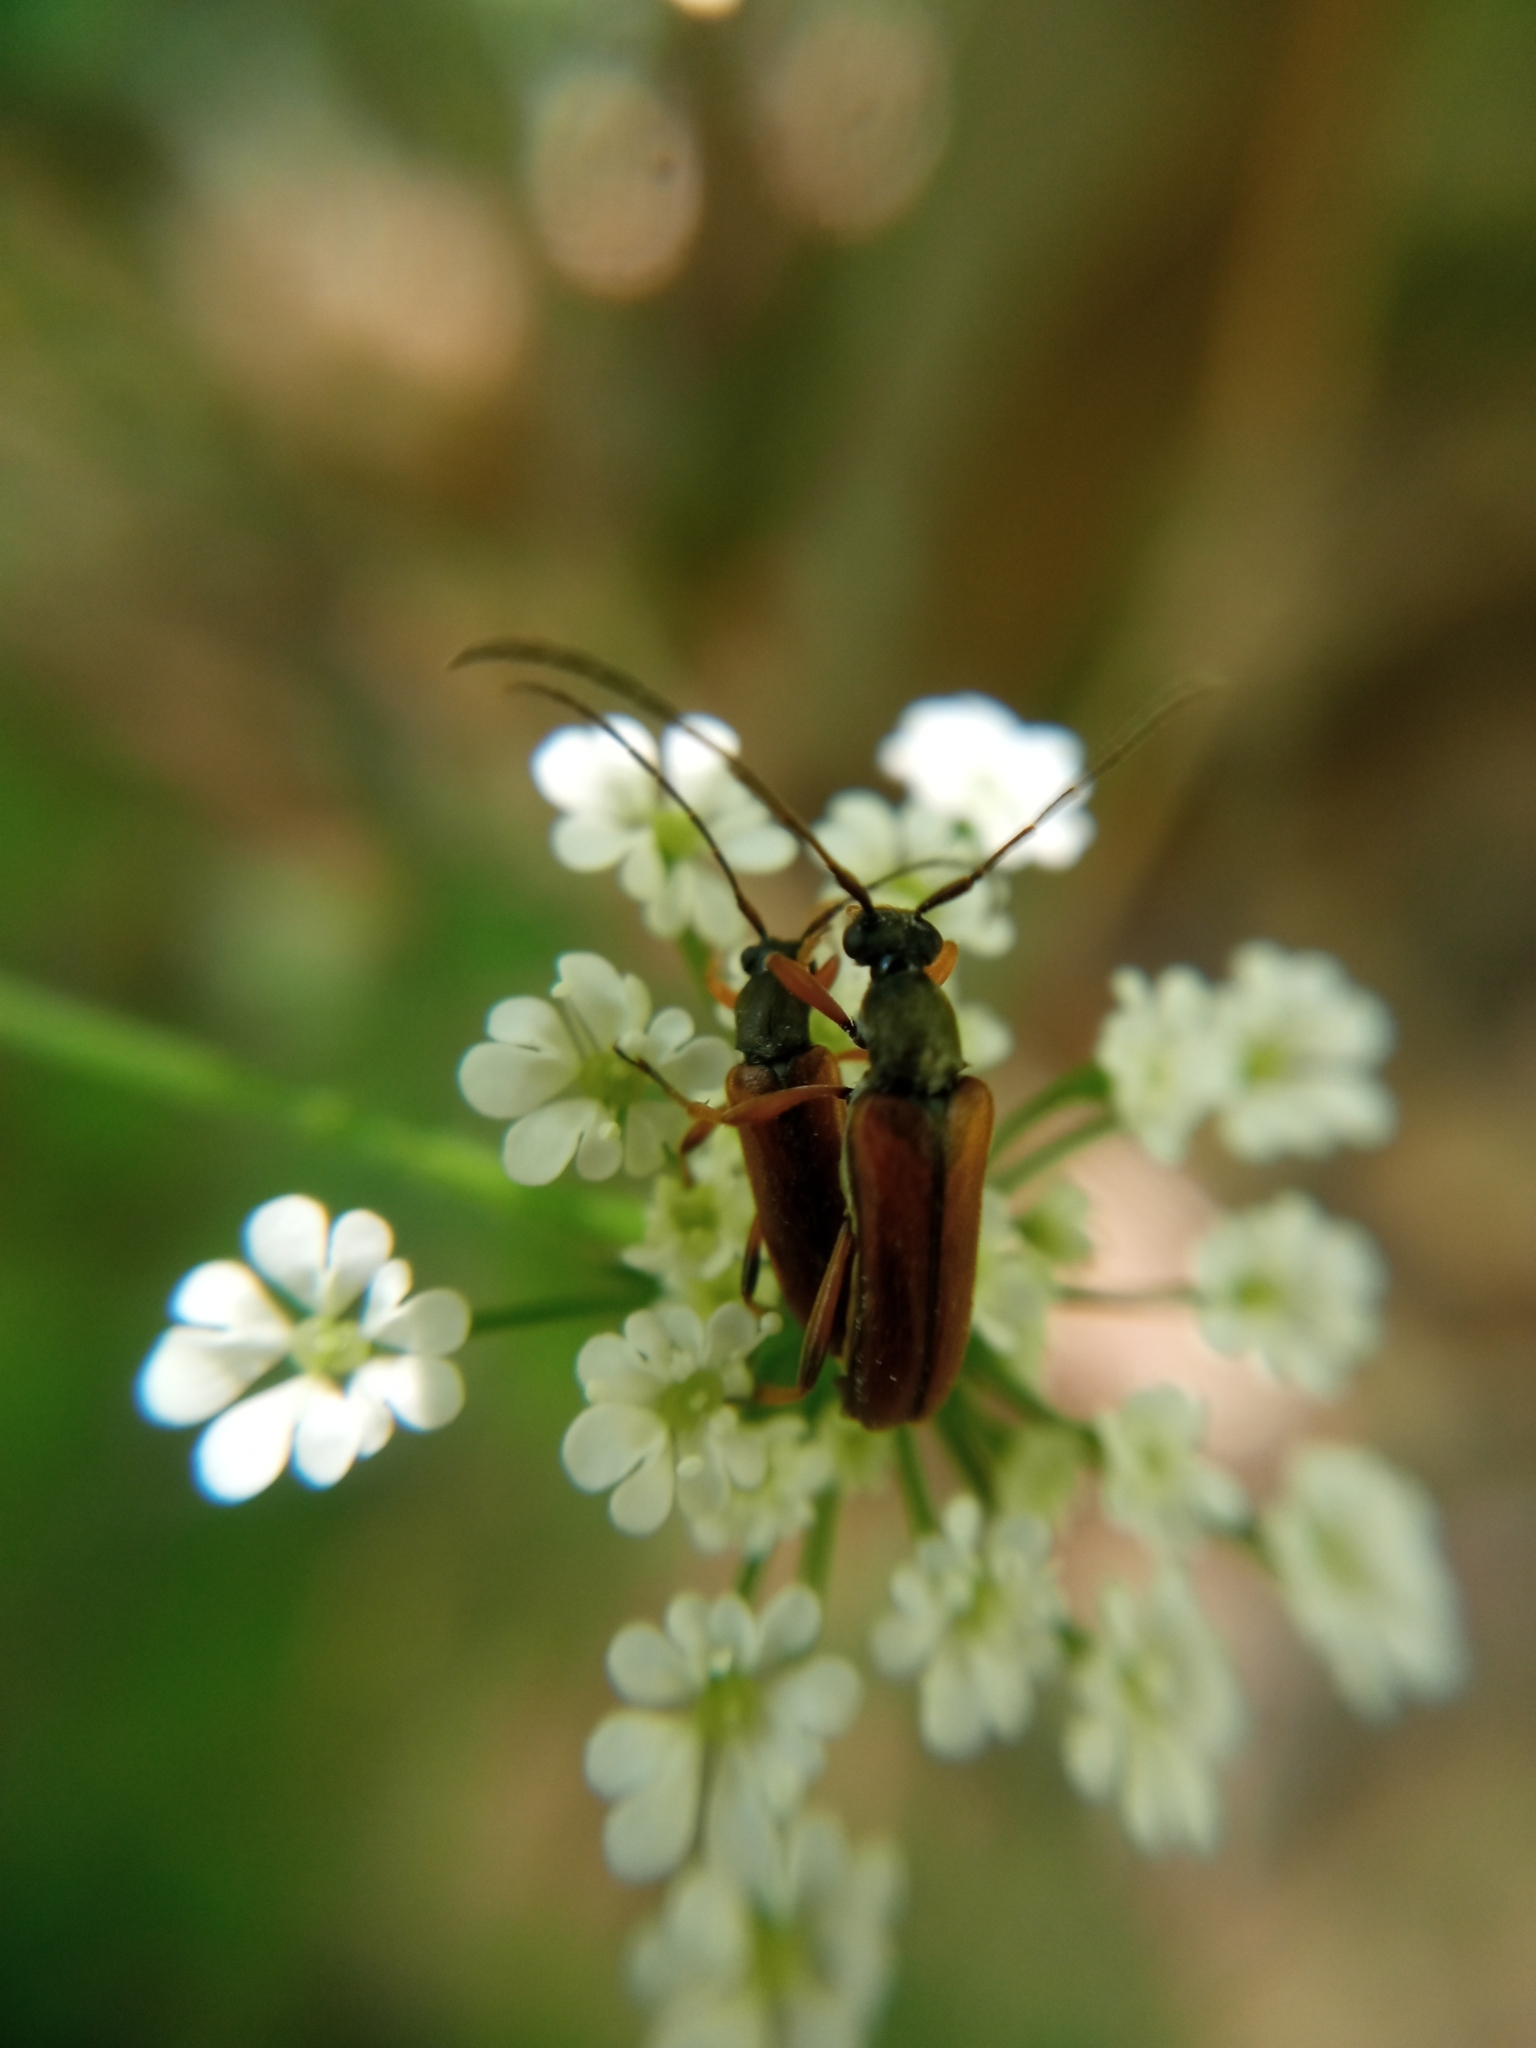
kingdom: Animalia
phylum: Arthropoda
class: Insecta
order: Coleoptera
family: Cerambycidae
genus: Alosterna
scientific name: Alosterna tabacicolor
